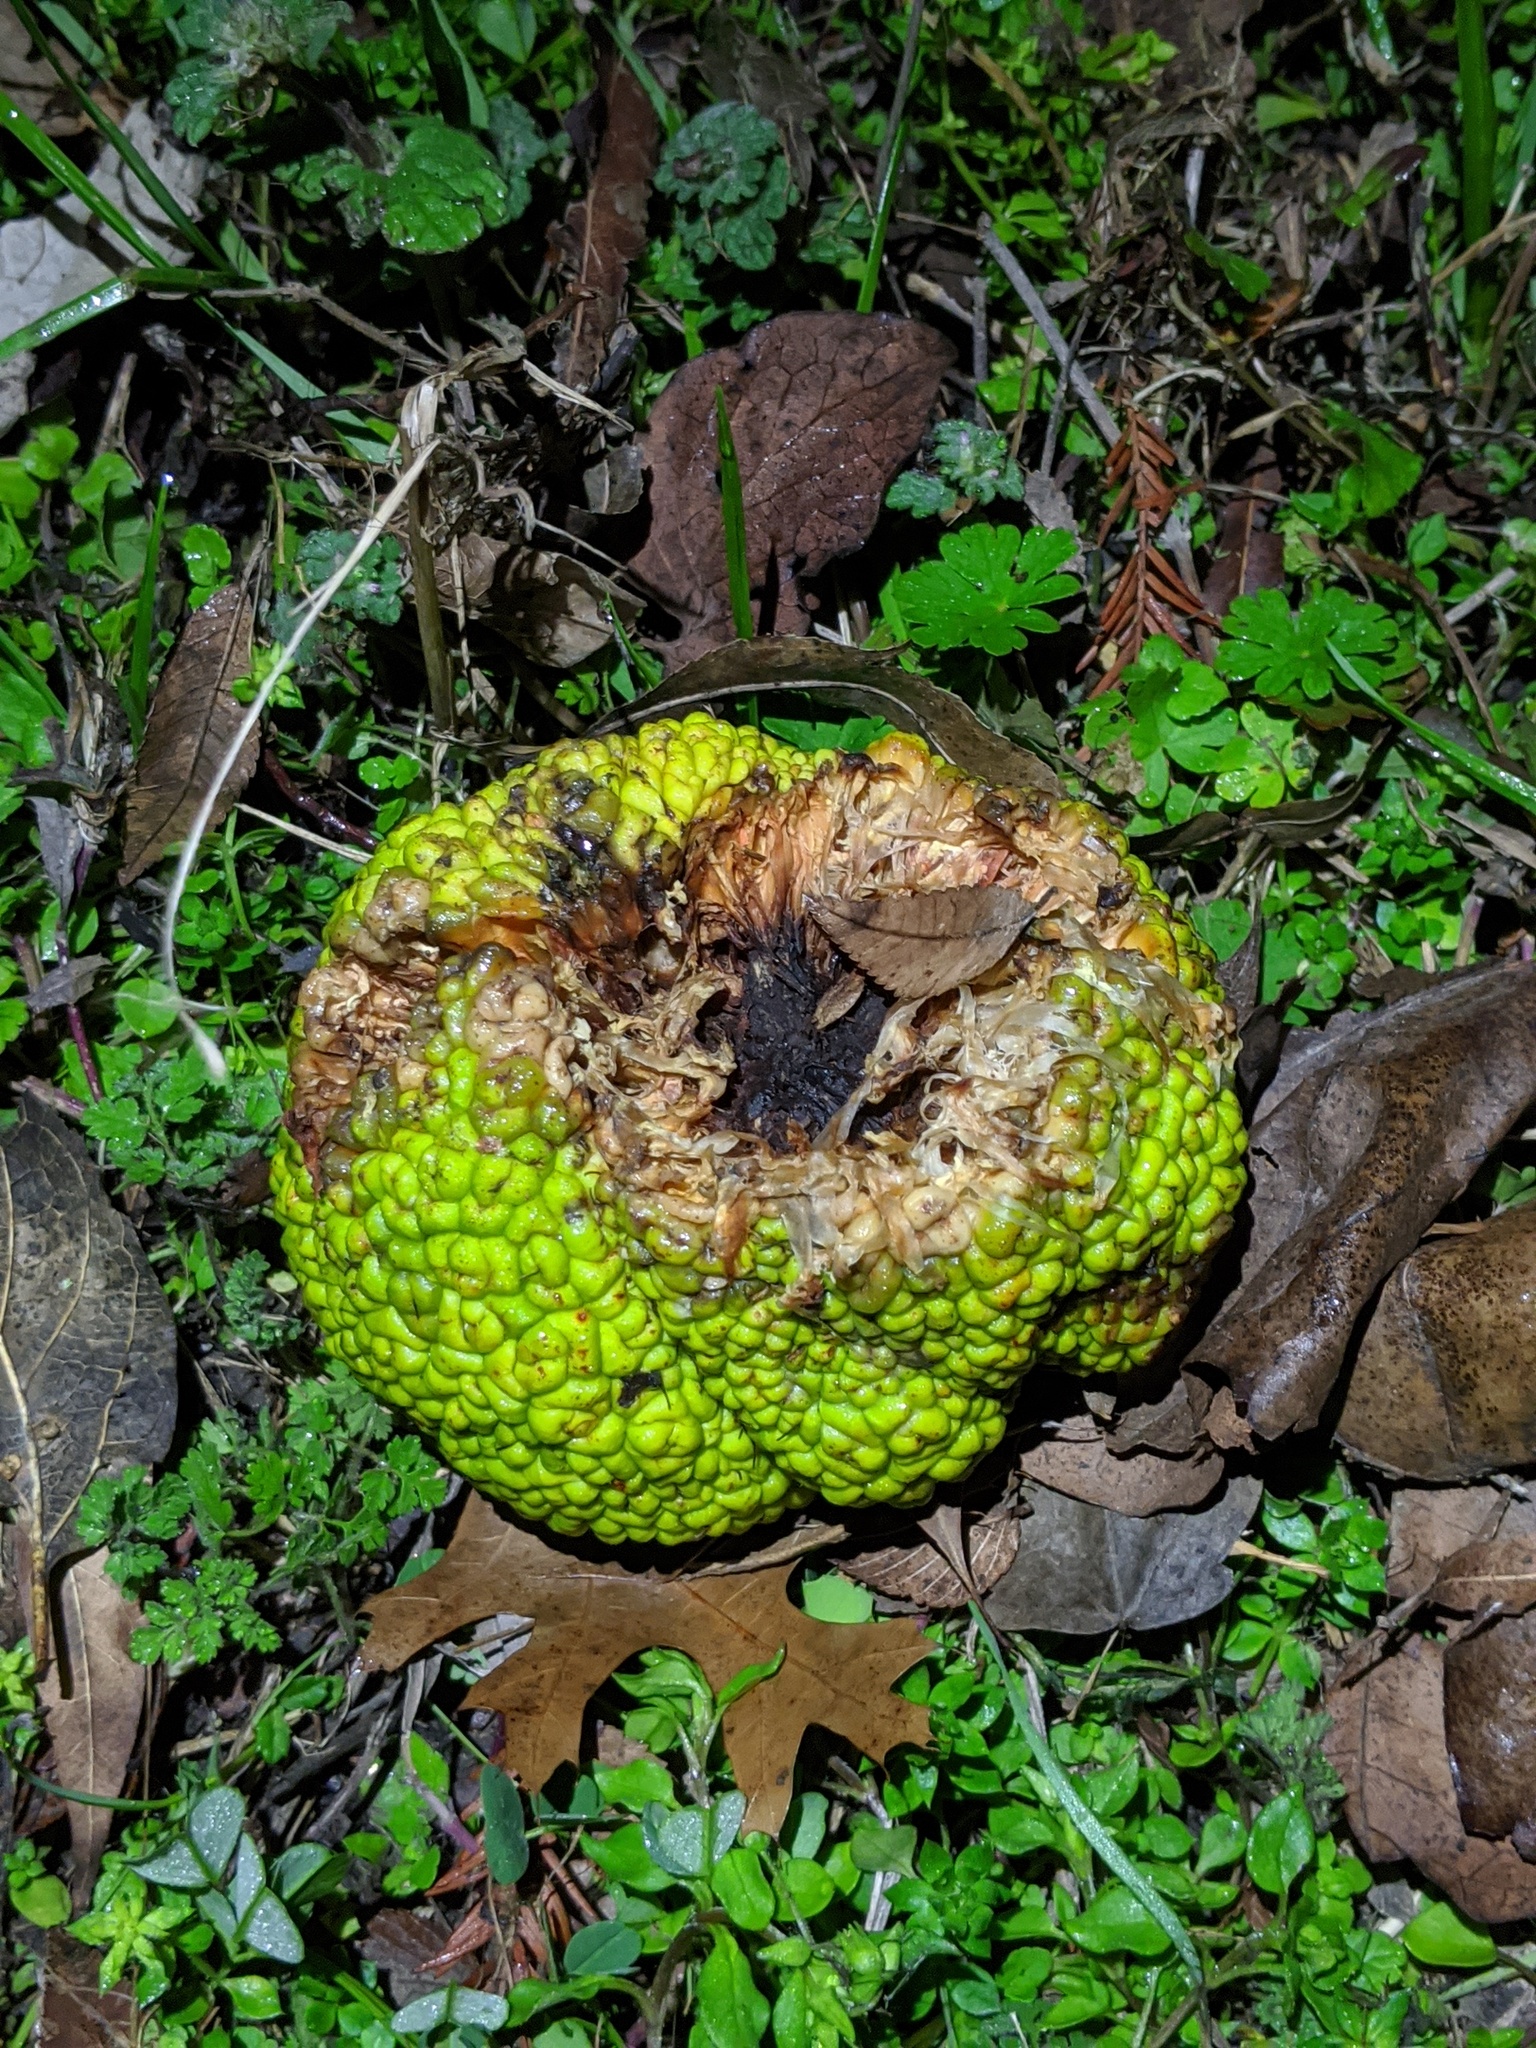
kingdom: Plantae
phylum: Tracheophyta
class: Magnoliopsida
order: Rosales
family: Moraceae
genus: Maclura
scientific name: Maclura pomifera
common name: Osage-orange
